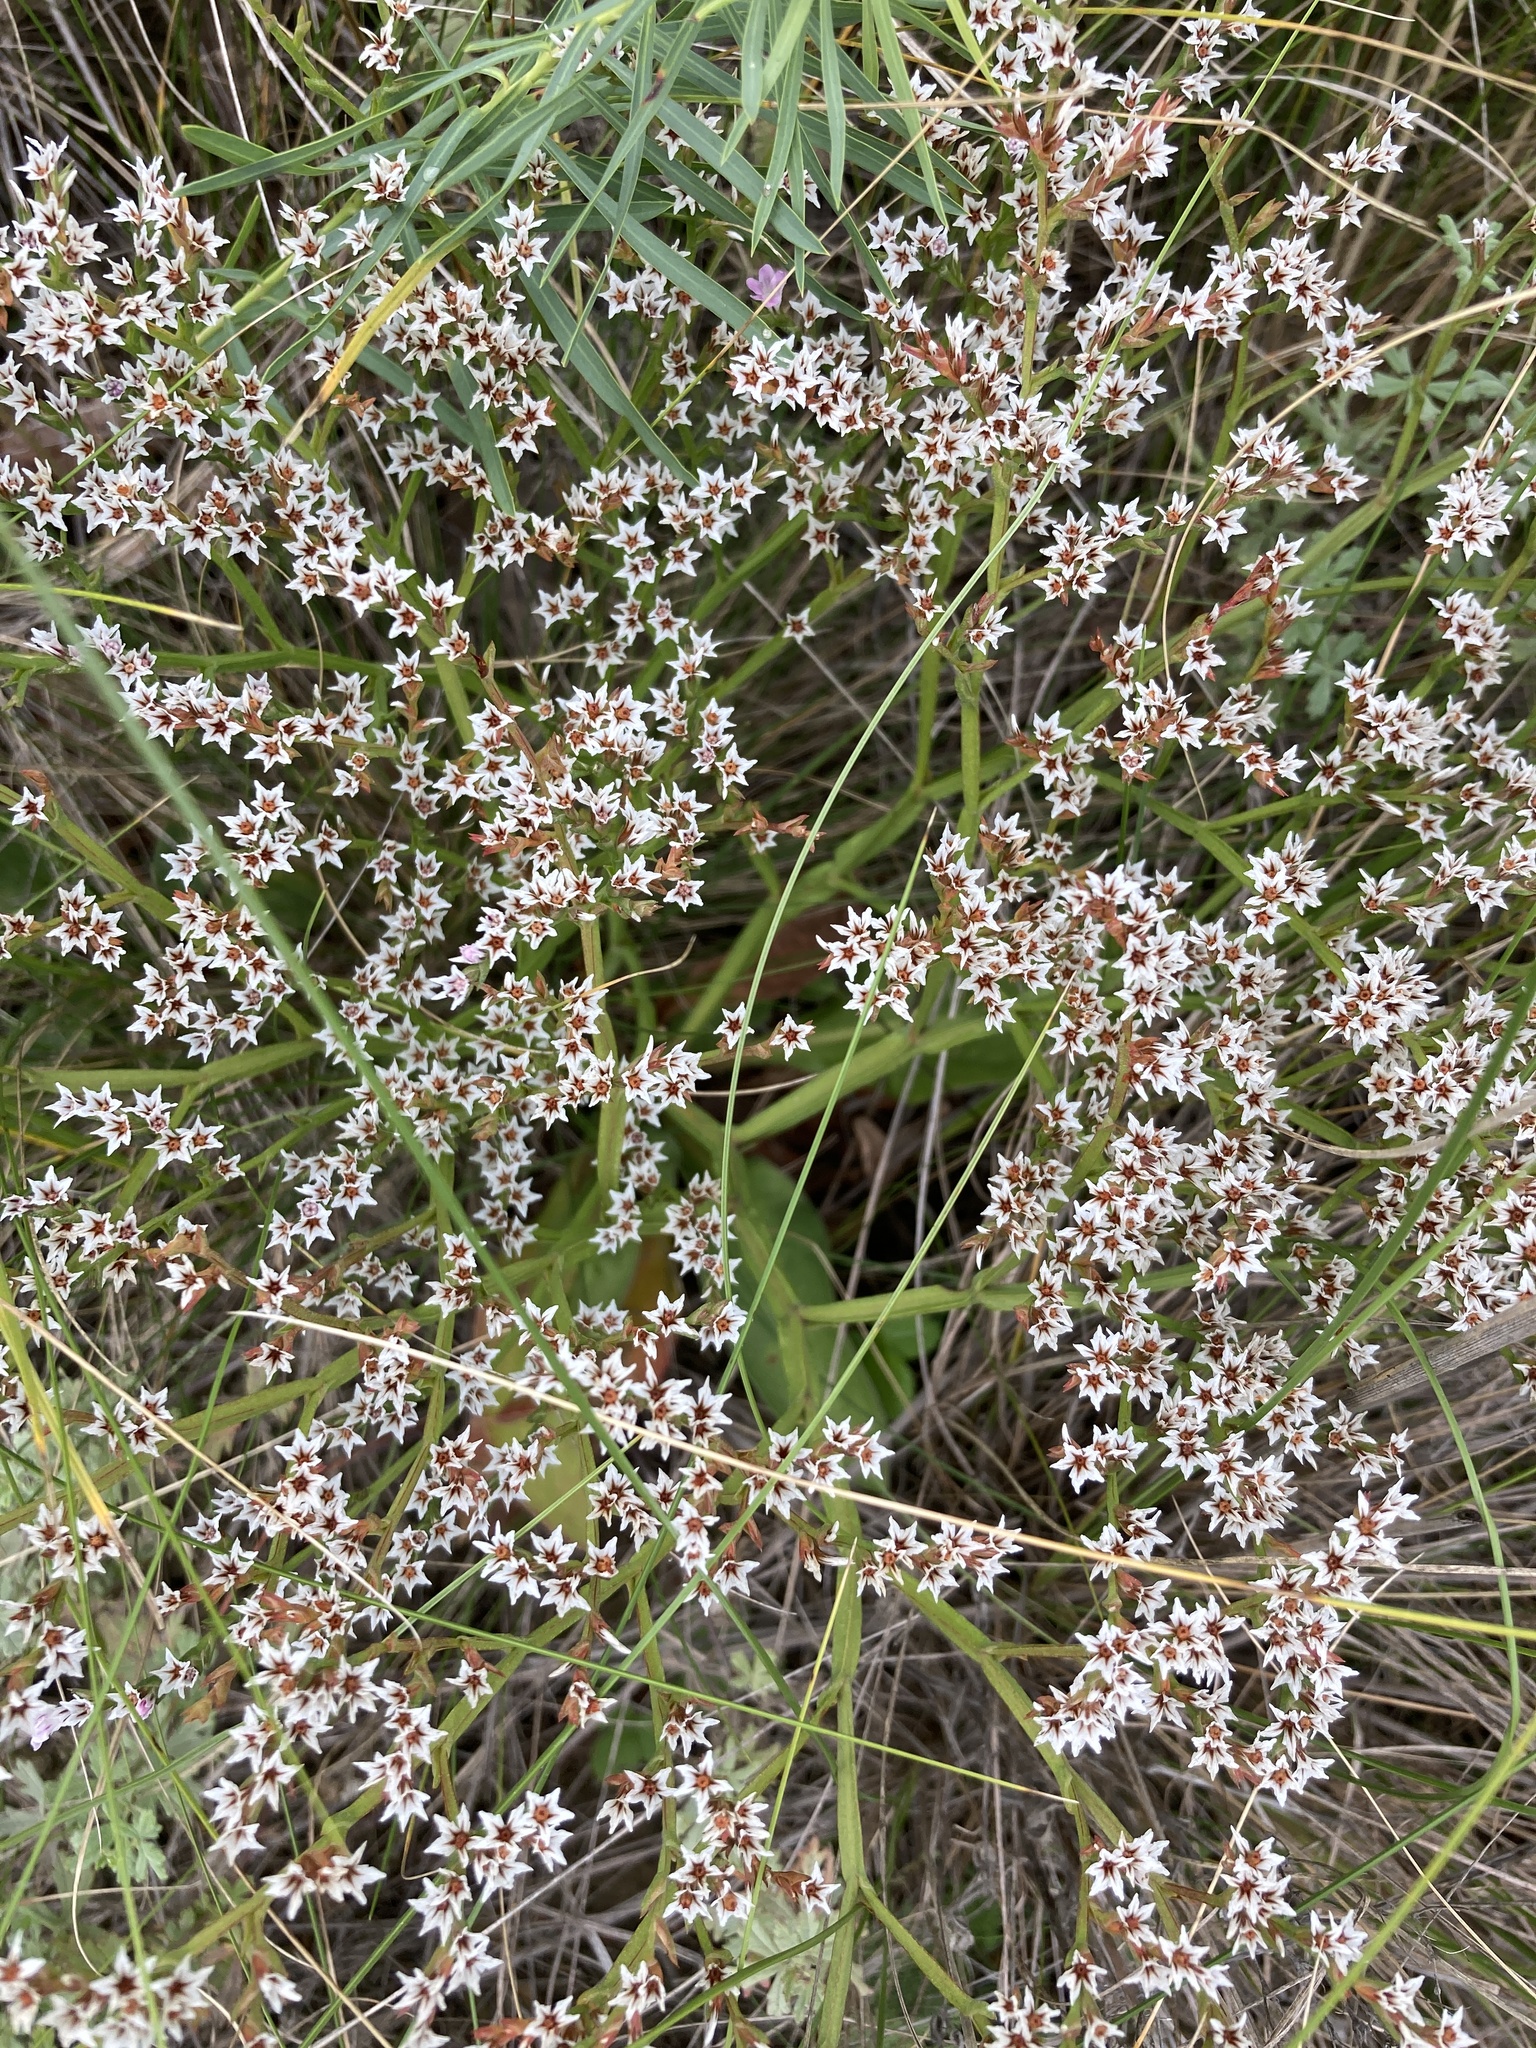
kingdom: Plantae
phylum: Tracheophyta
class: Magnoliopsida
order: Caryophyllales
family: Plumbaginaceae
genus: Goniolimon
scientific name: Goniolimon tataricum
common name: Statice
